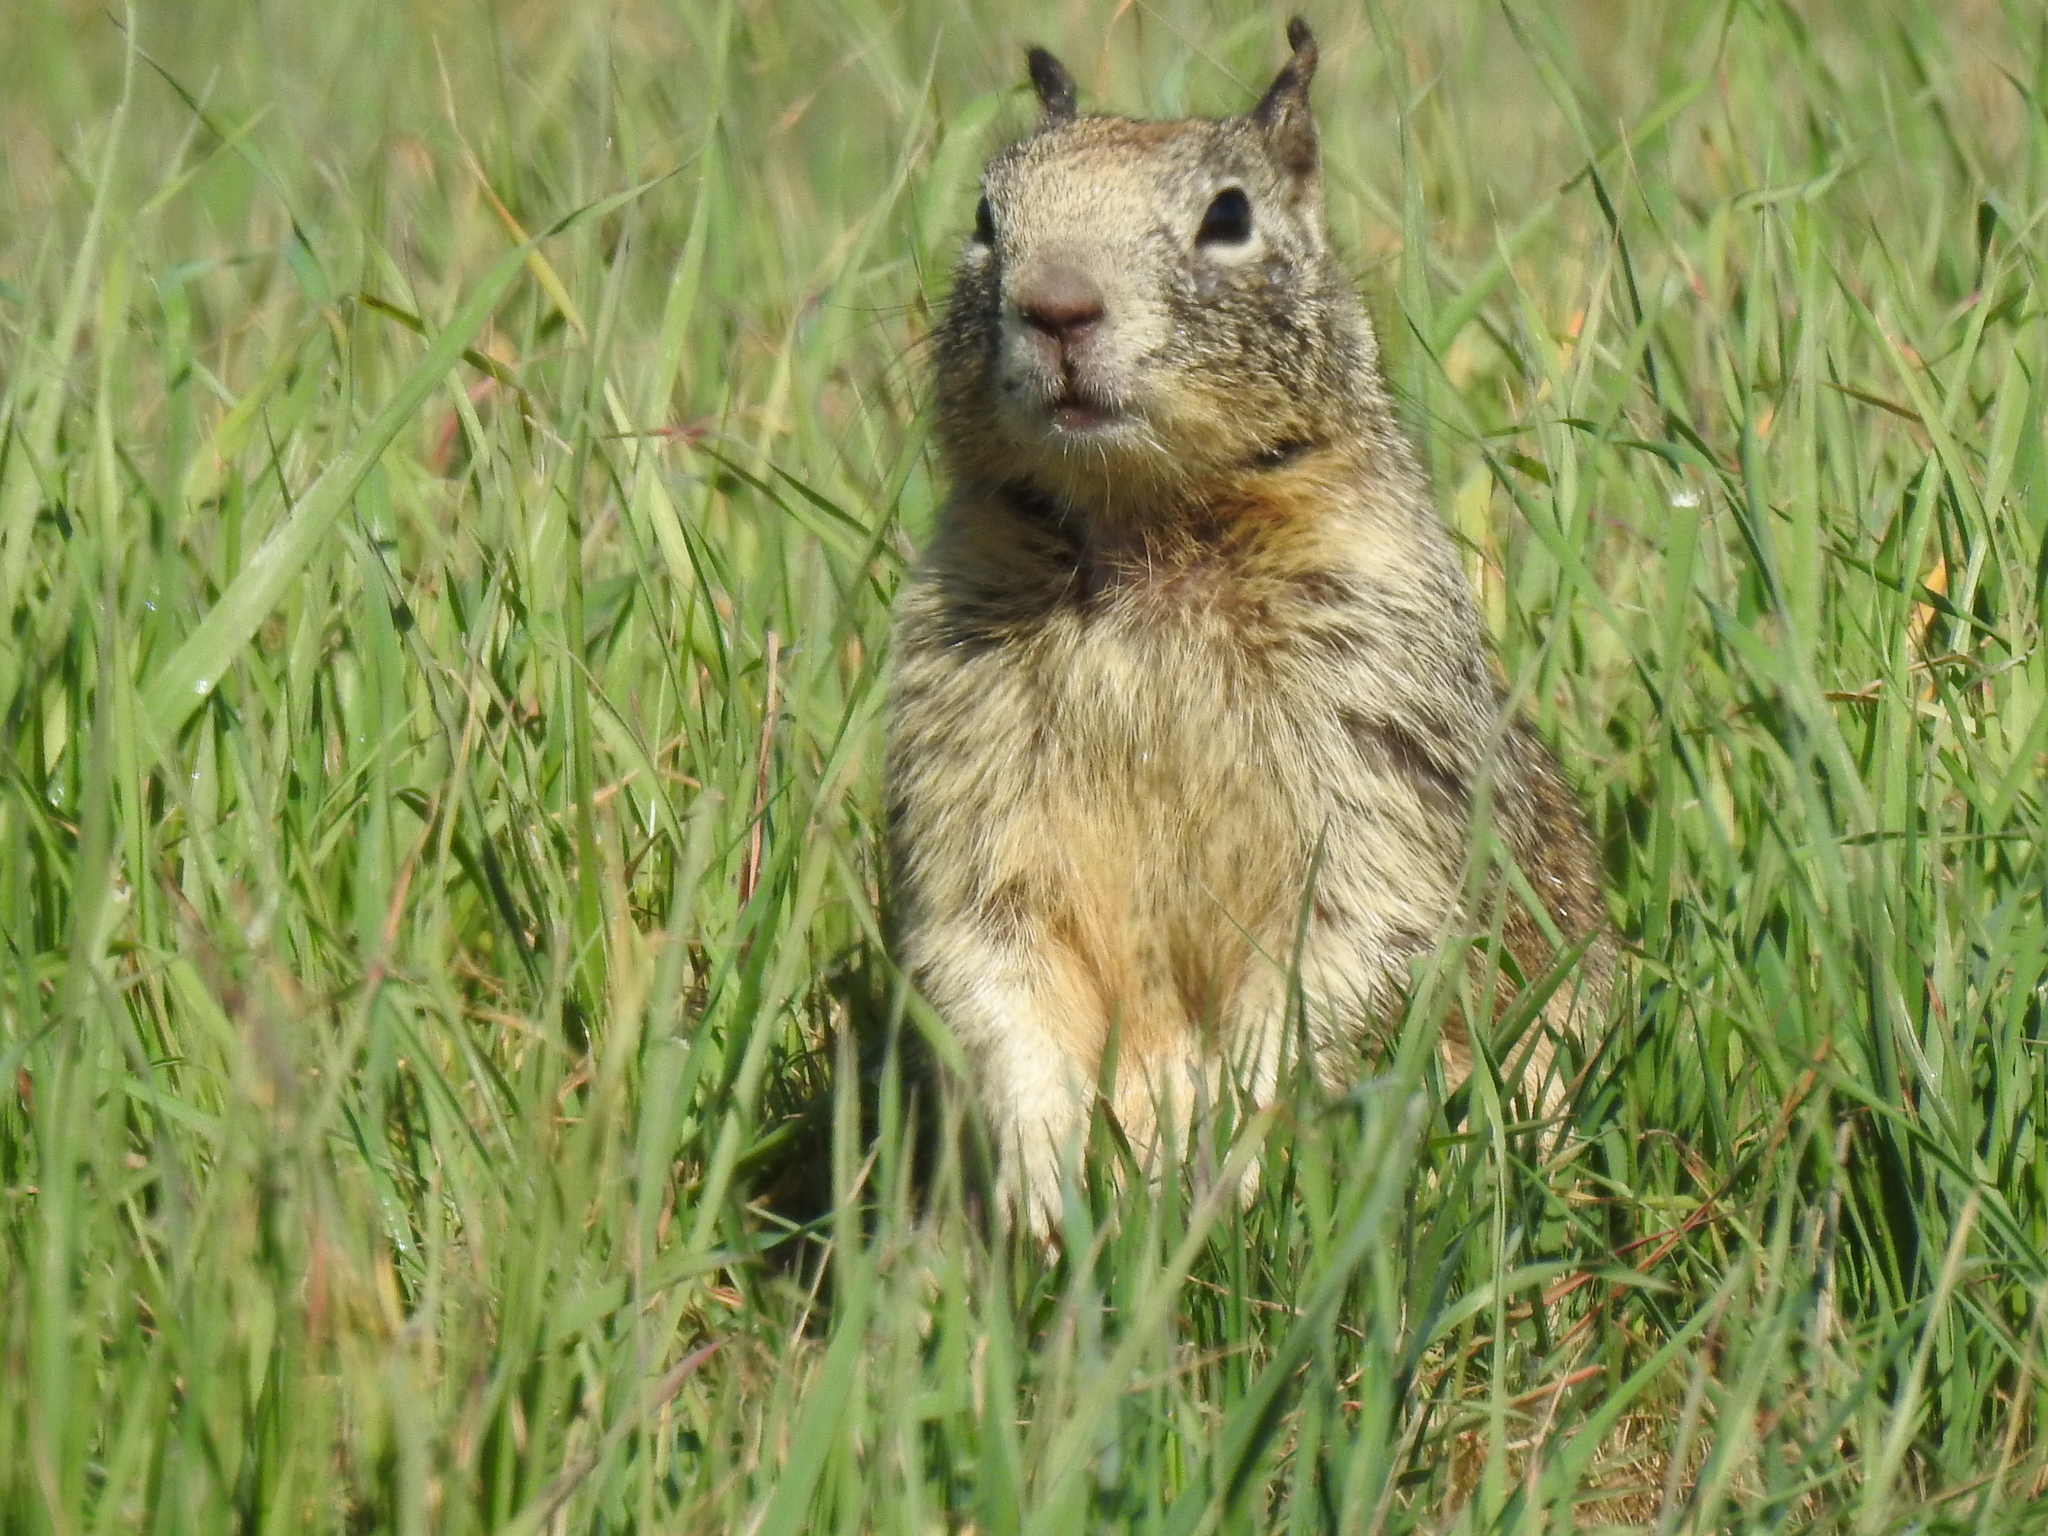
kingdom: Animalia
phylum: Chordata
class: Mammalia
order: Rodentia
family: Sciuridae
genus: Otospermophilus
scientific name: Otospermophilus beecheyi
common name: California ground squirrel
